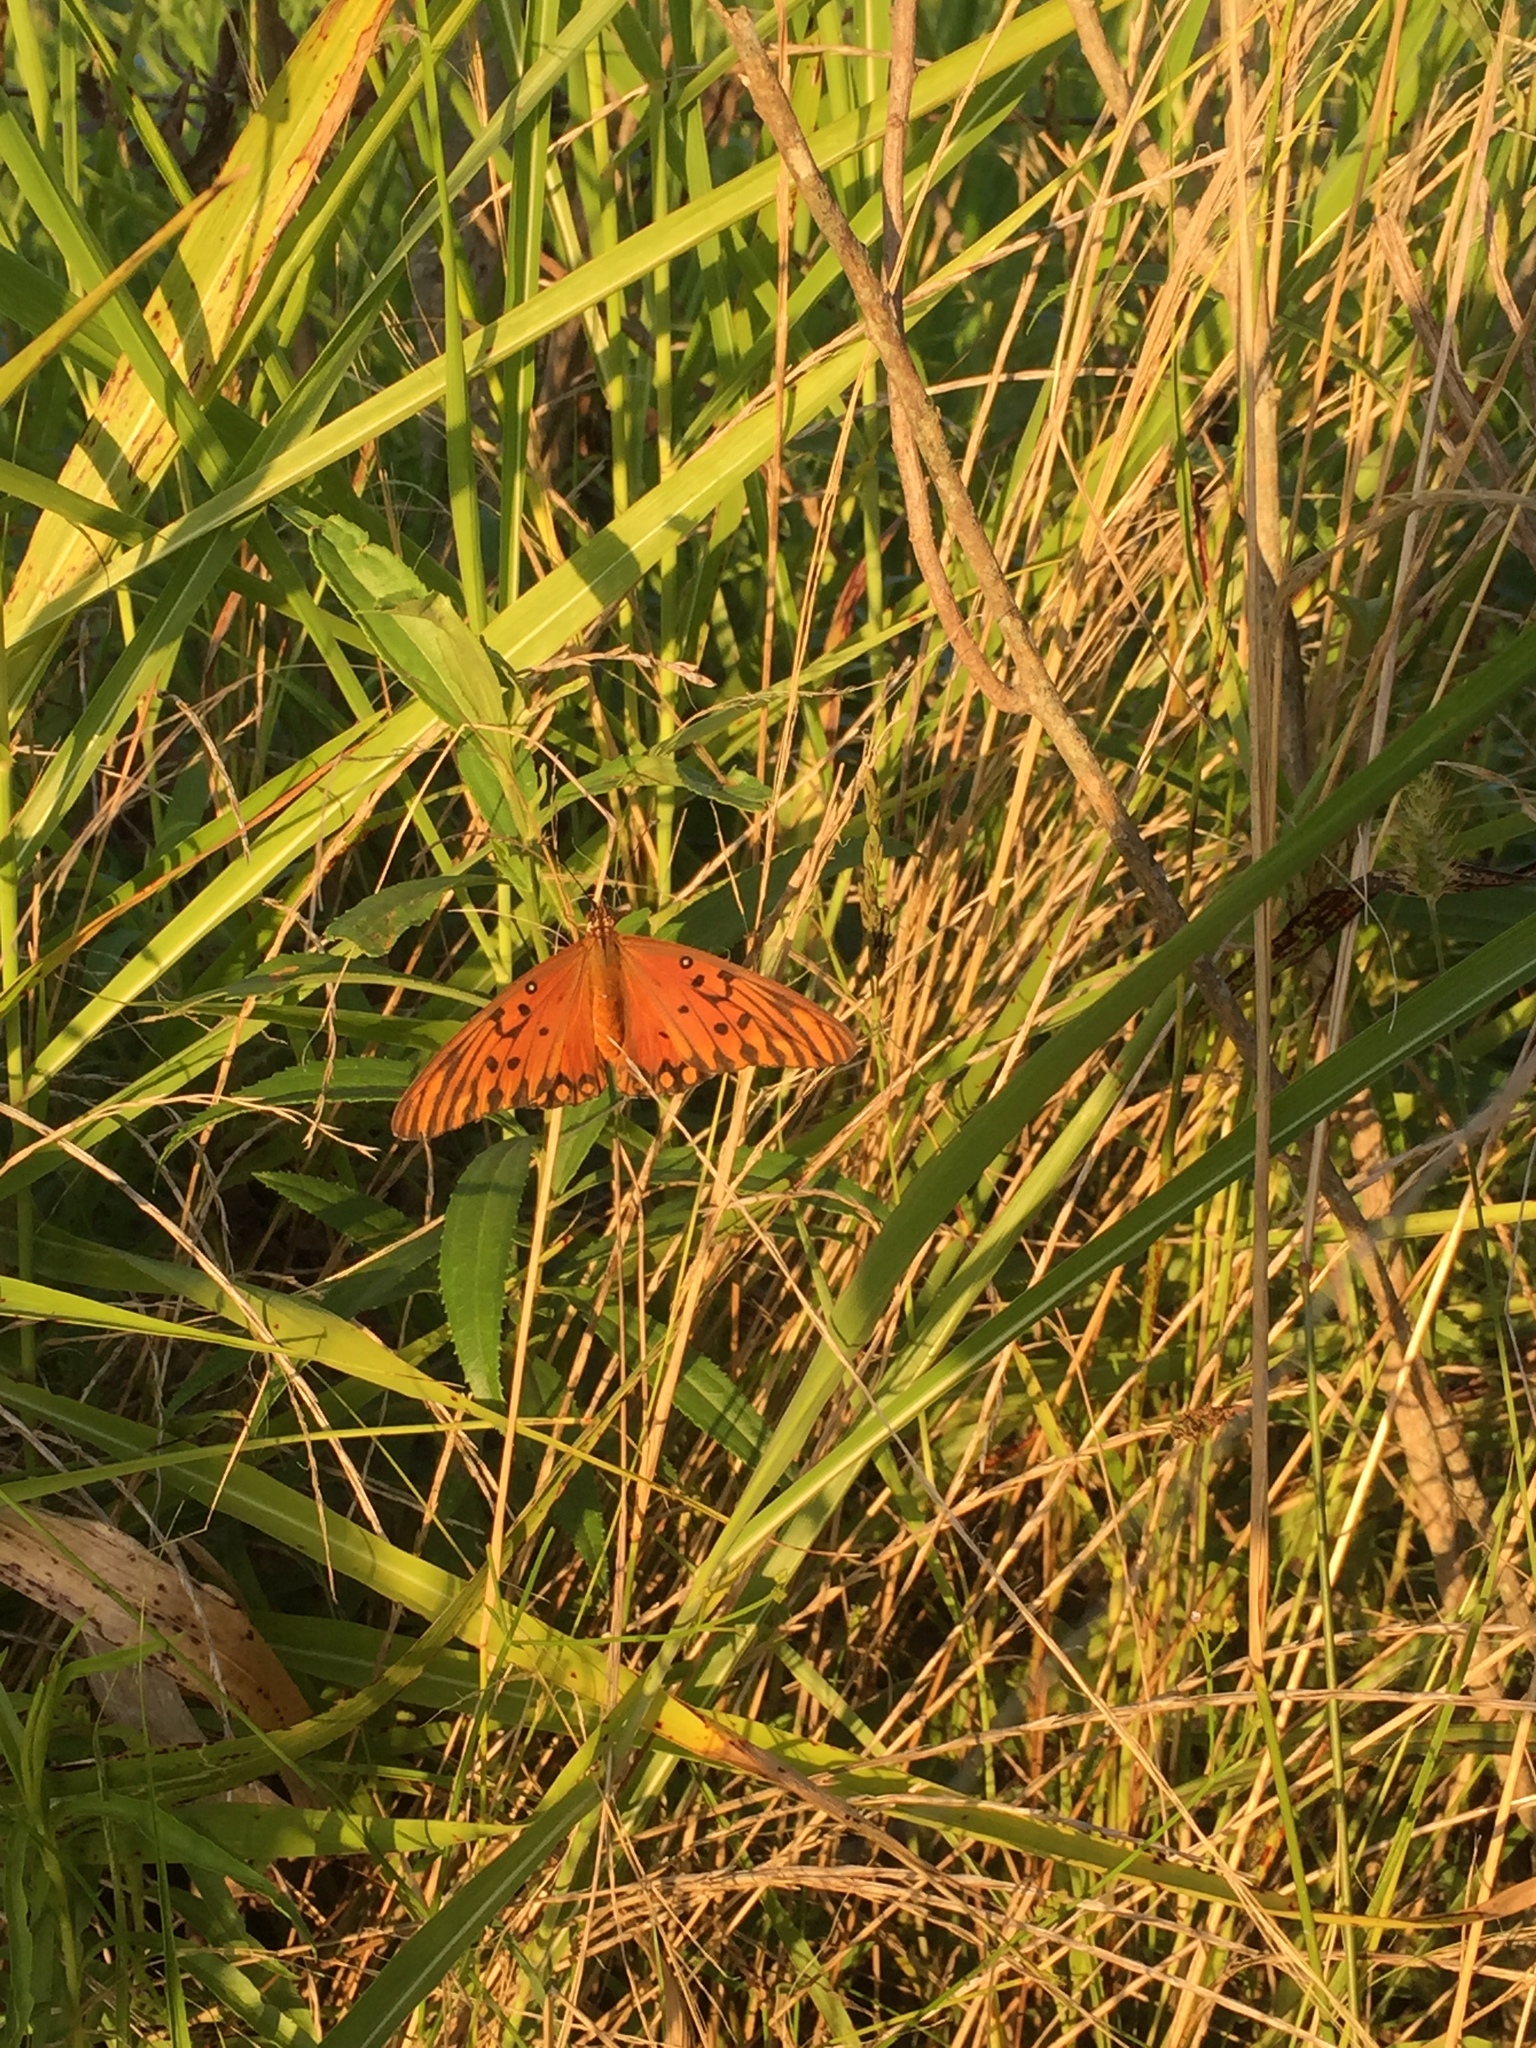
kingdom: Animalia
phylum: Arthropoda
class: Insecta
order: Lepidoptera
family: Nymphalidae
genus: Dione
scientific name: Dione vanillae
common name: Gulf fritillary
